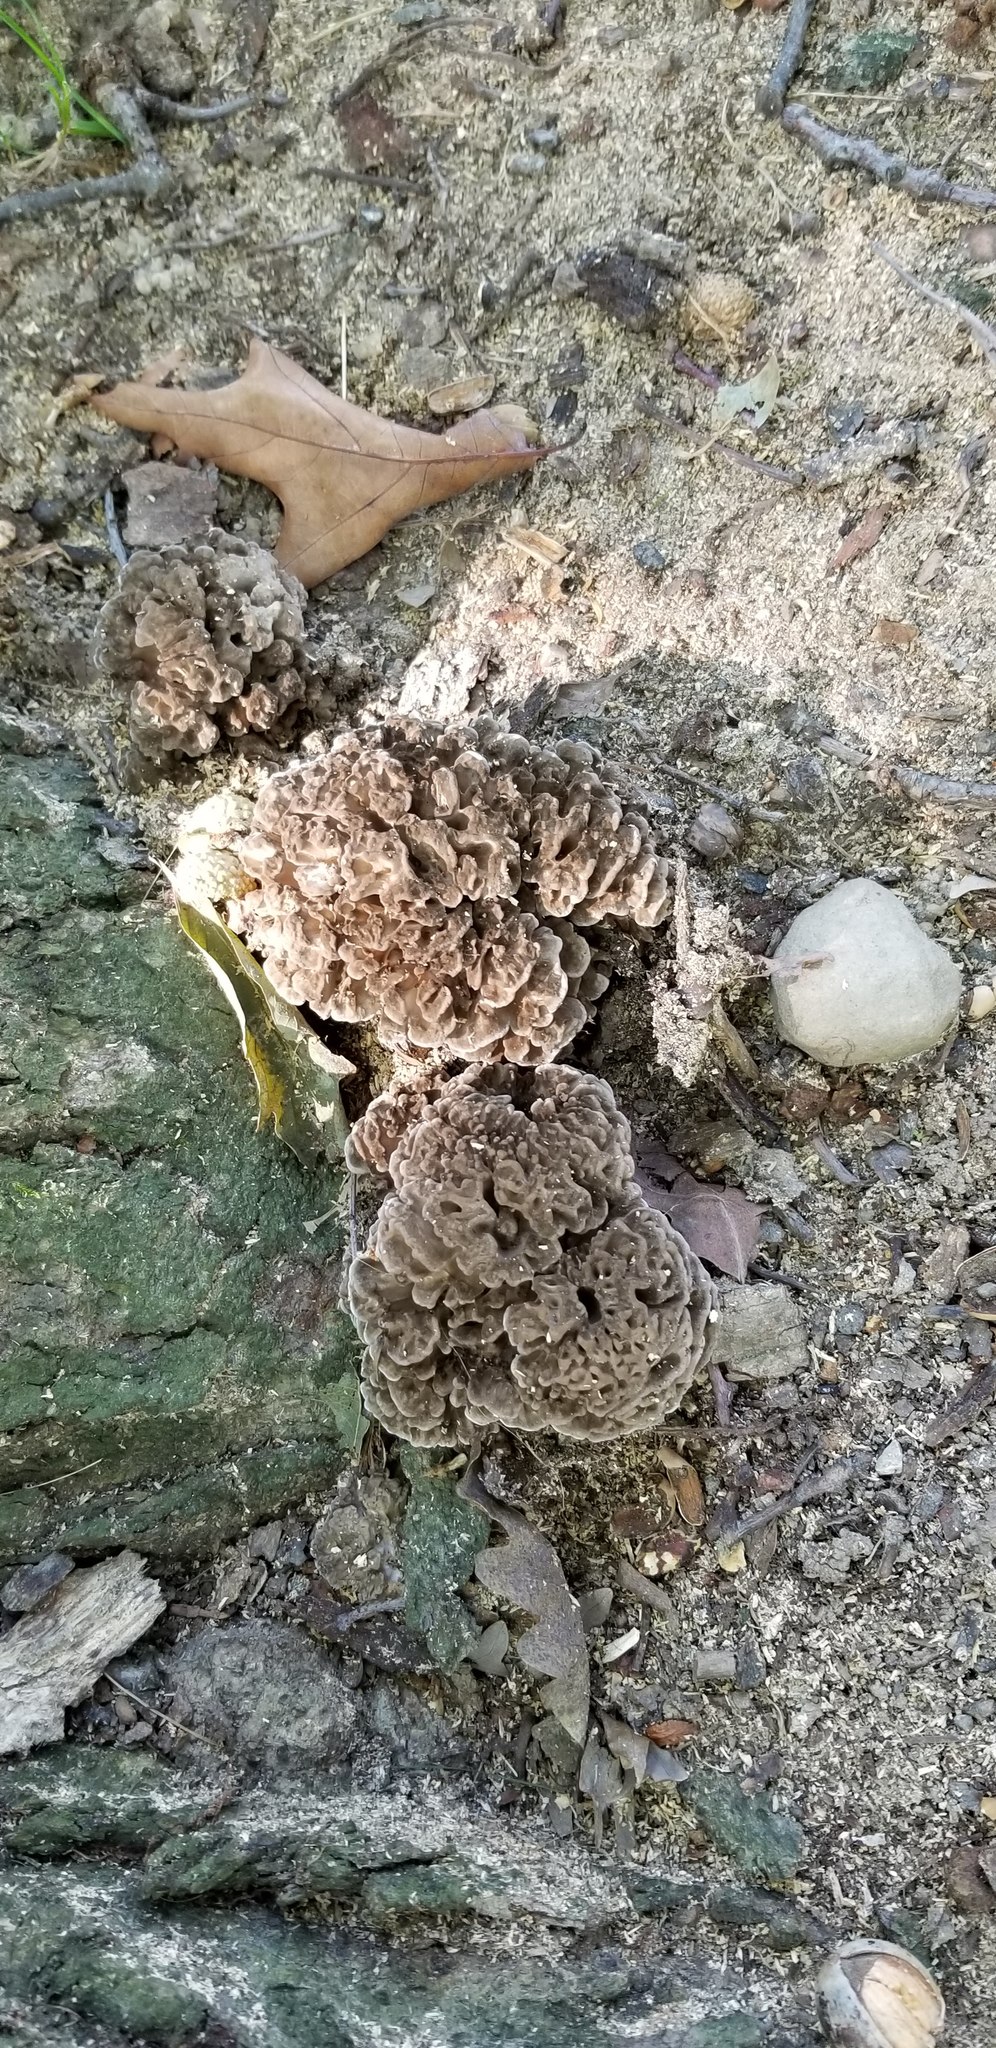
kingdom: Fungi
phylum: Basidiomycota
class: Agaricomycetes
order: Polyporales
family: Grifolaceae
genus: Grifola
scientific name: Grifola frondosa
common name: Hen of the woods
